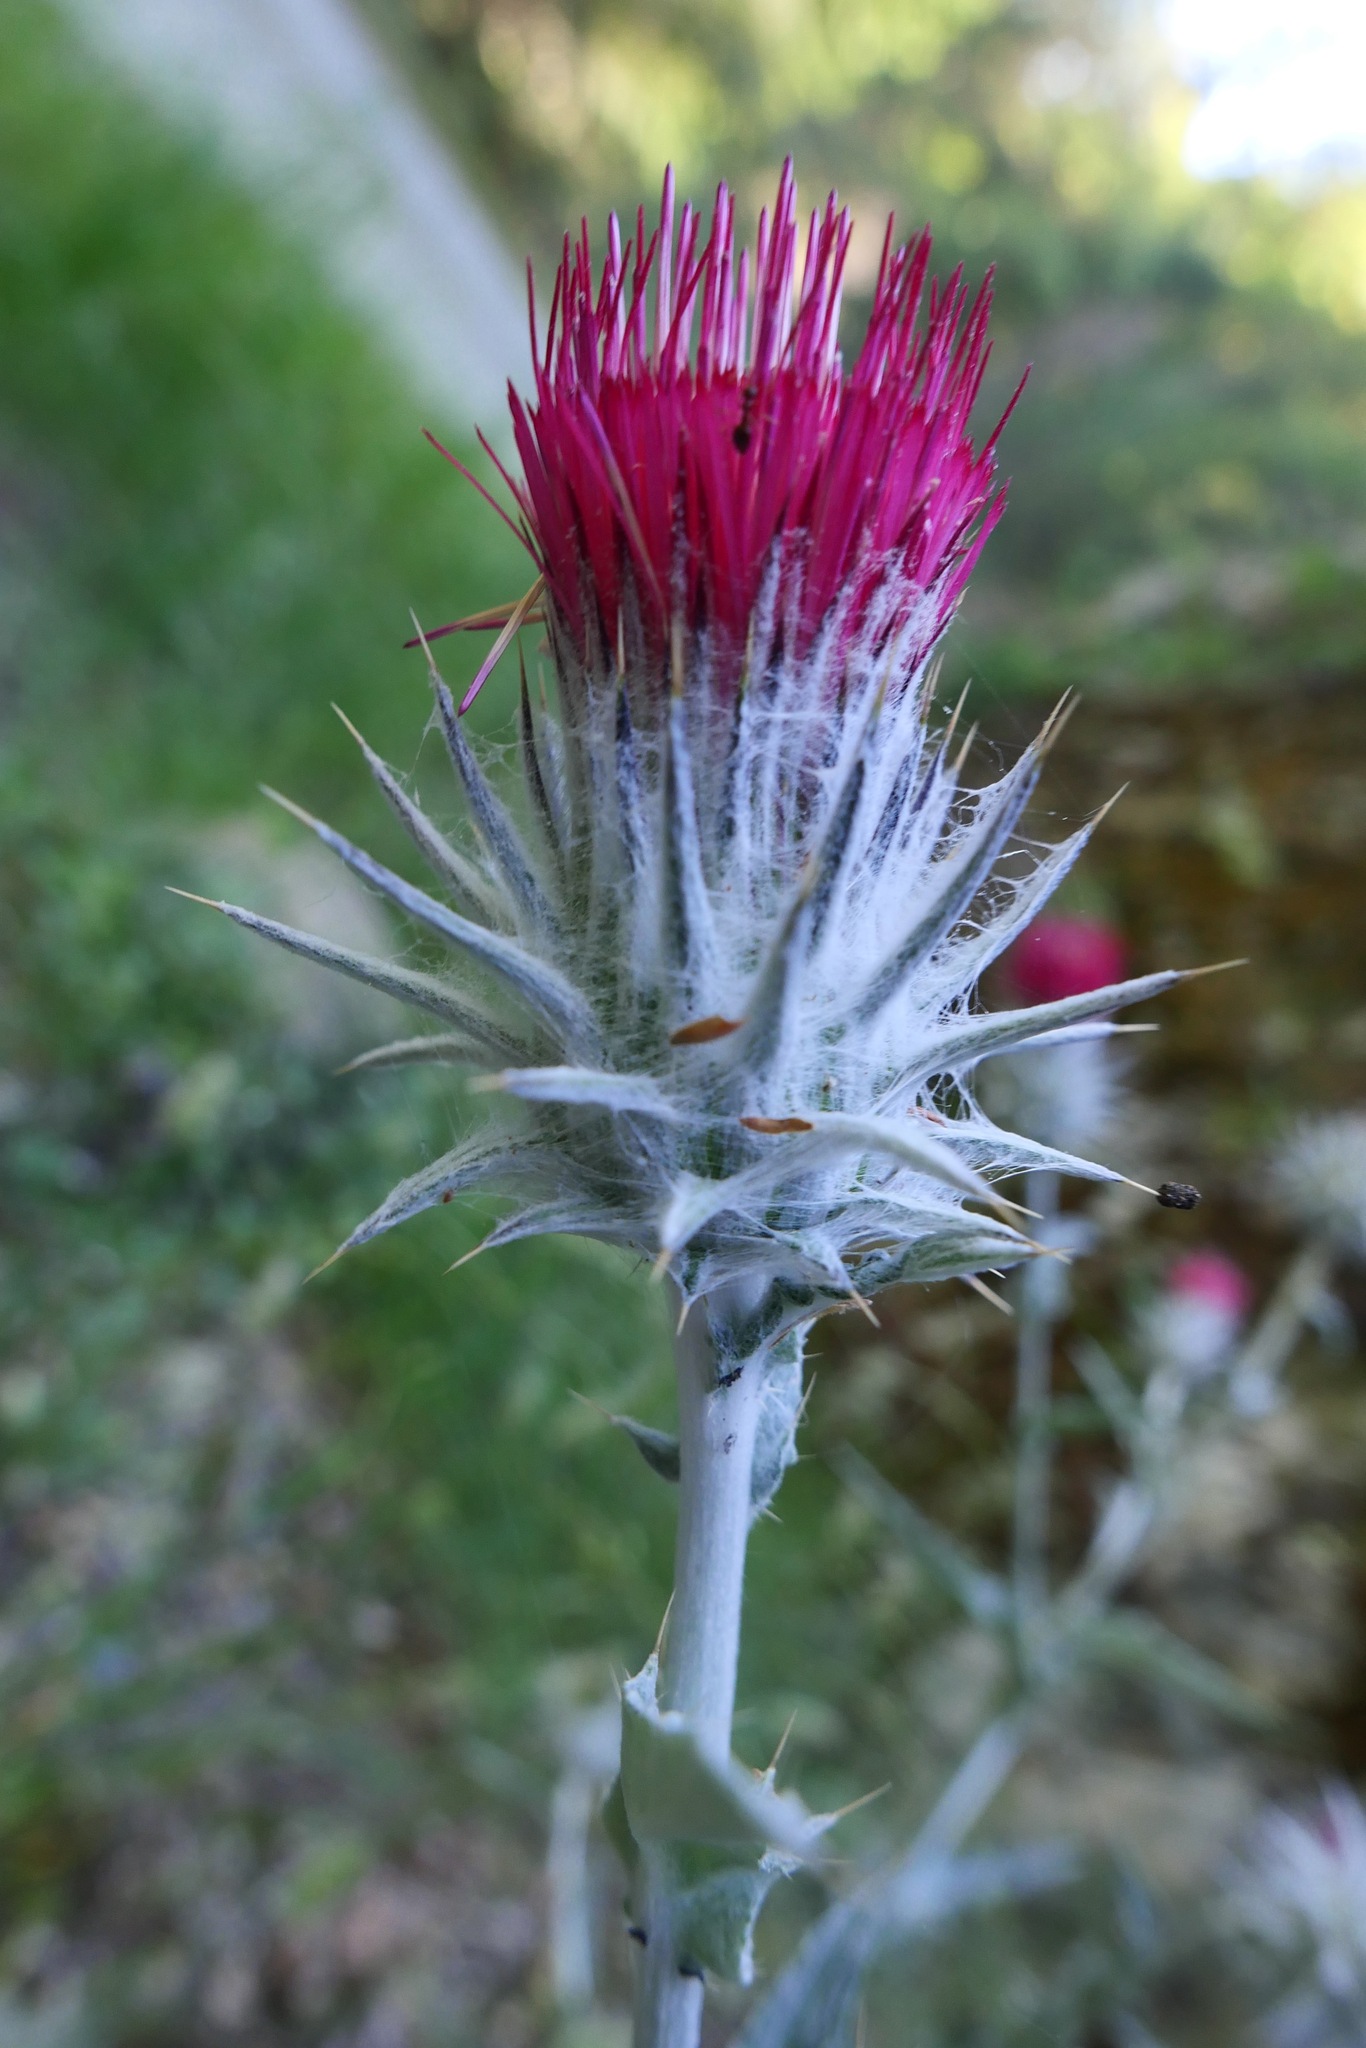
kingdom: Plantae
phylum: Tracheophyta
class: Magnoliopsida
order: Asterales
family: Asteraceae
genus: Cirsium
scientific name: Cirsium occidentale
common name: Western thistle
